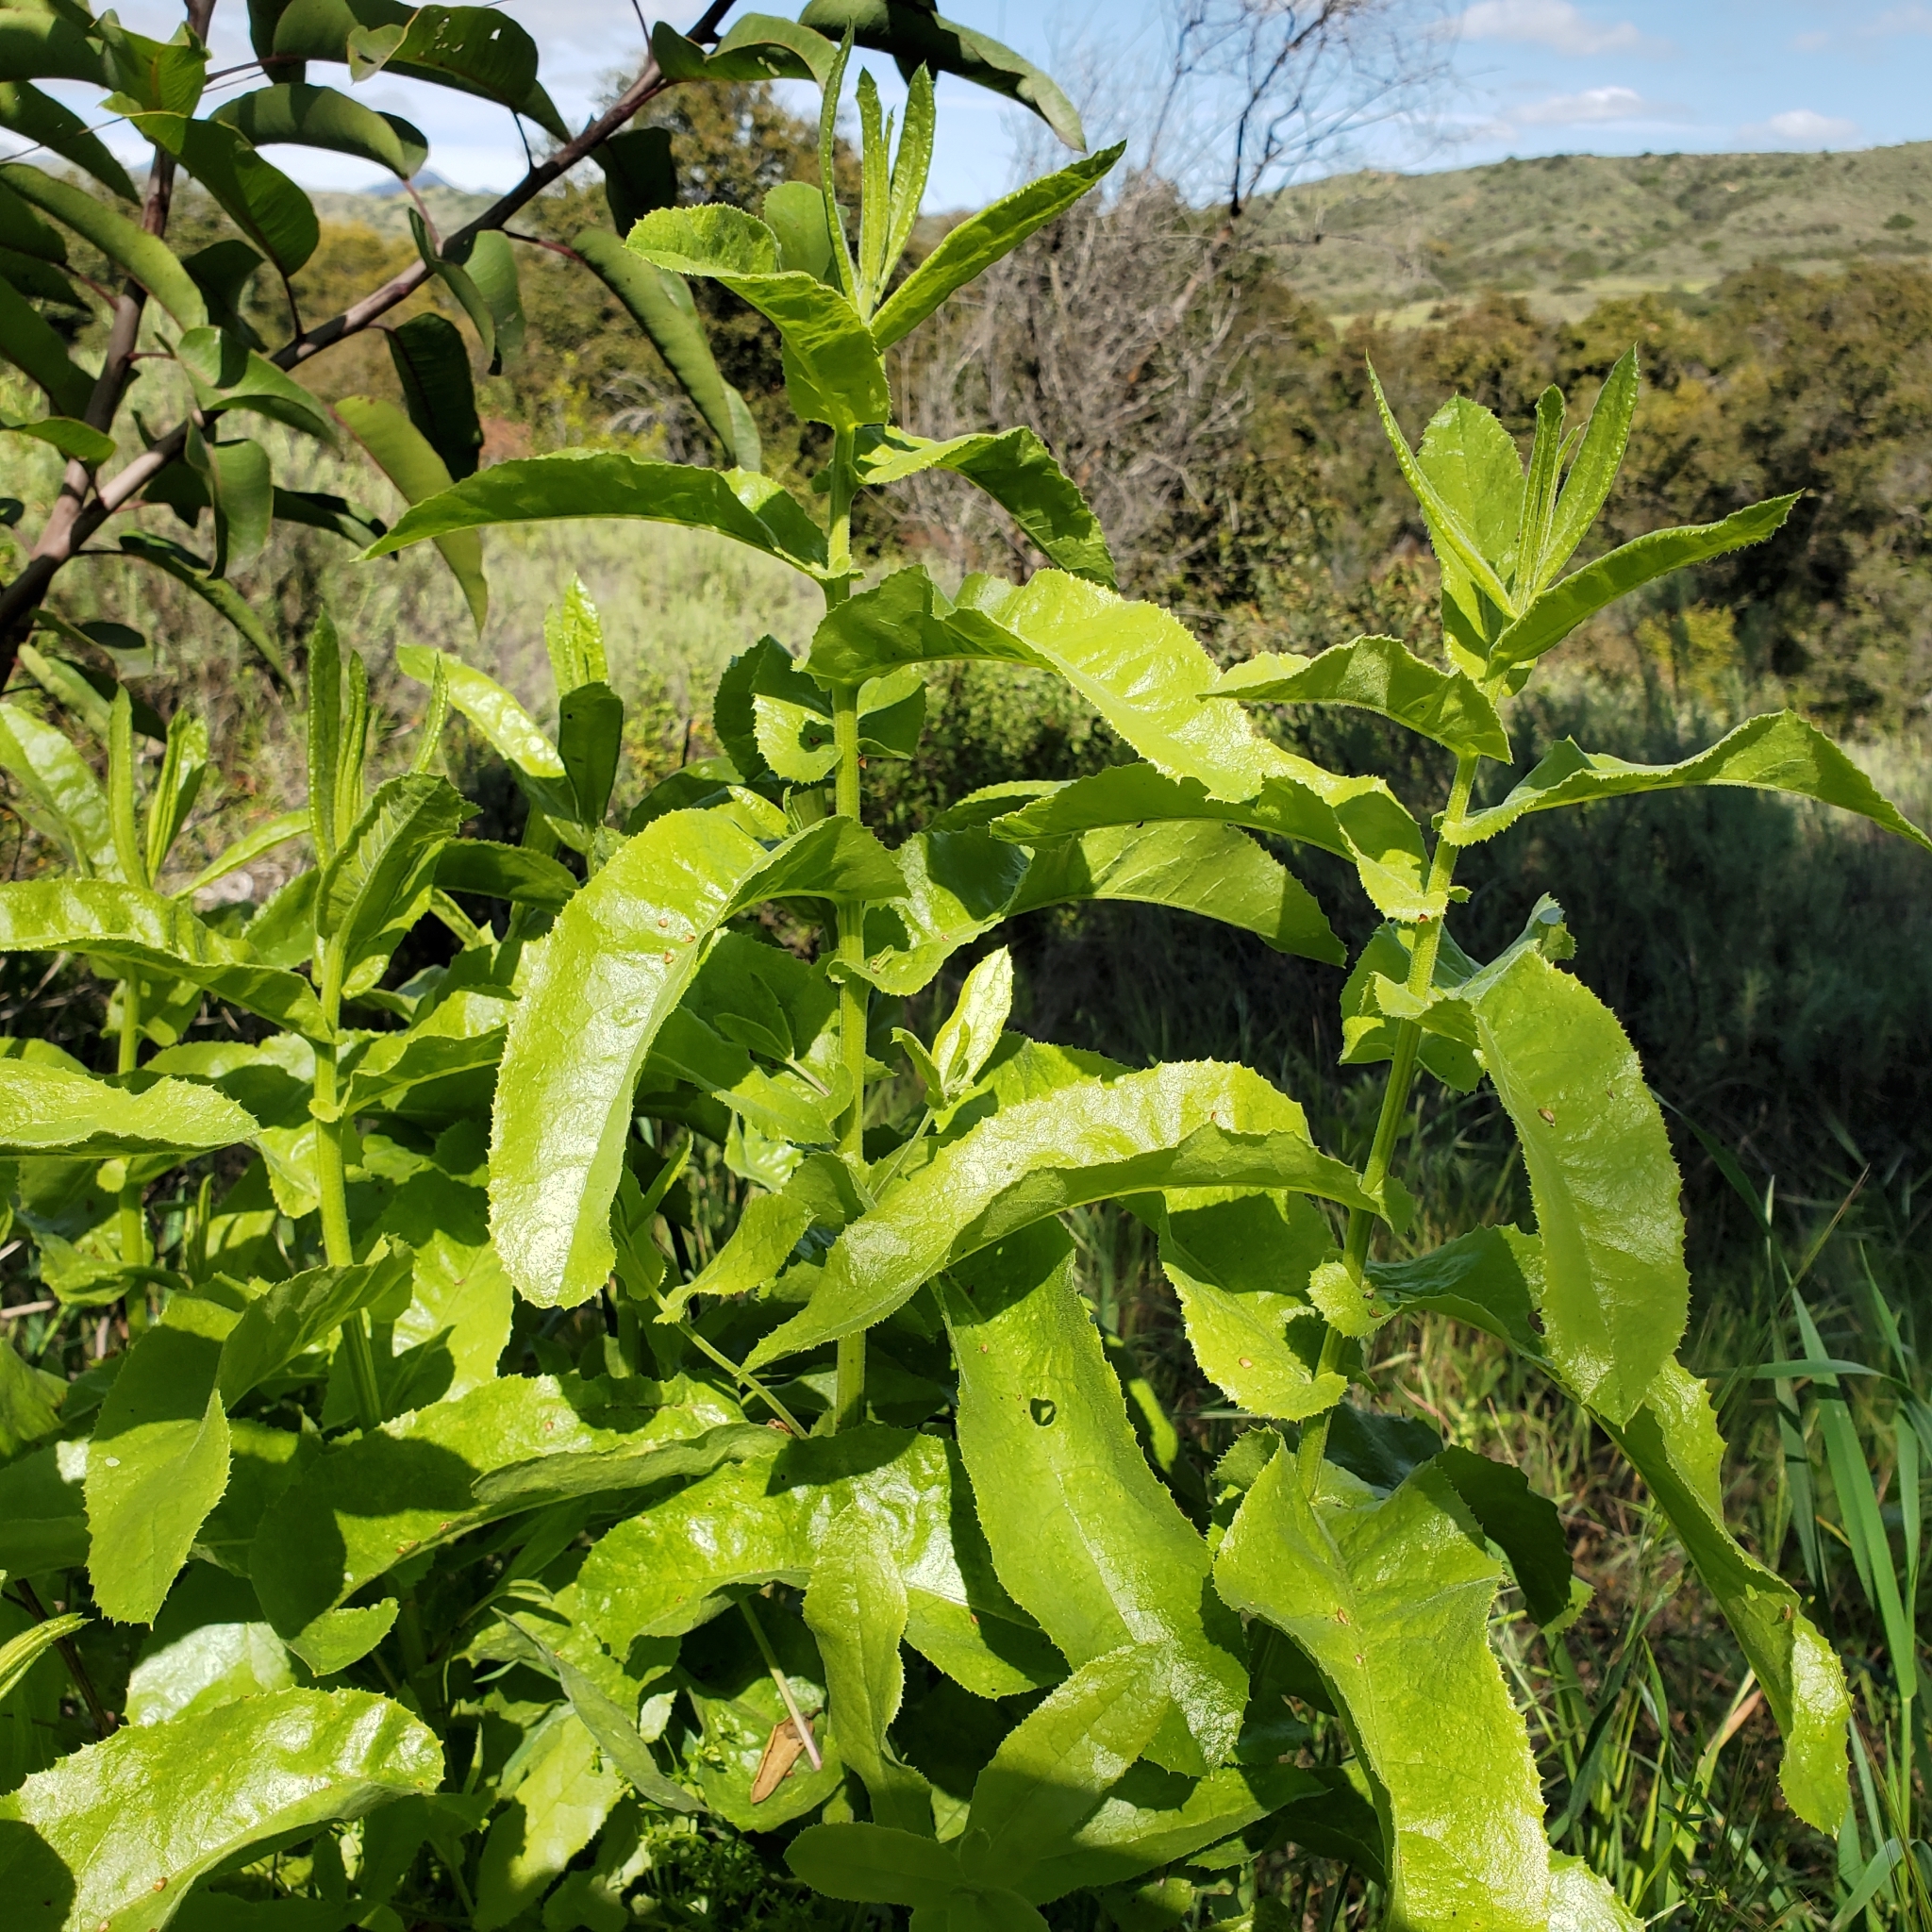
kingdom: Plantae
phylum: Tracheophyta
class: Magnoliopsida
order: Asterales
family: Asteraceae
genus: Acourtia
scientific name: Acourtia microcephala
